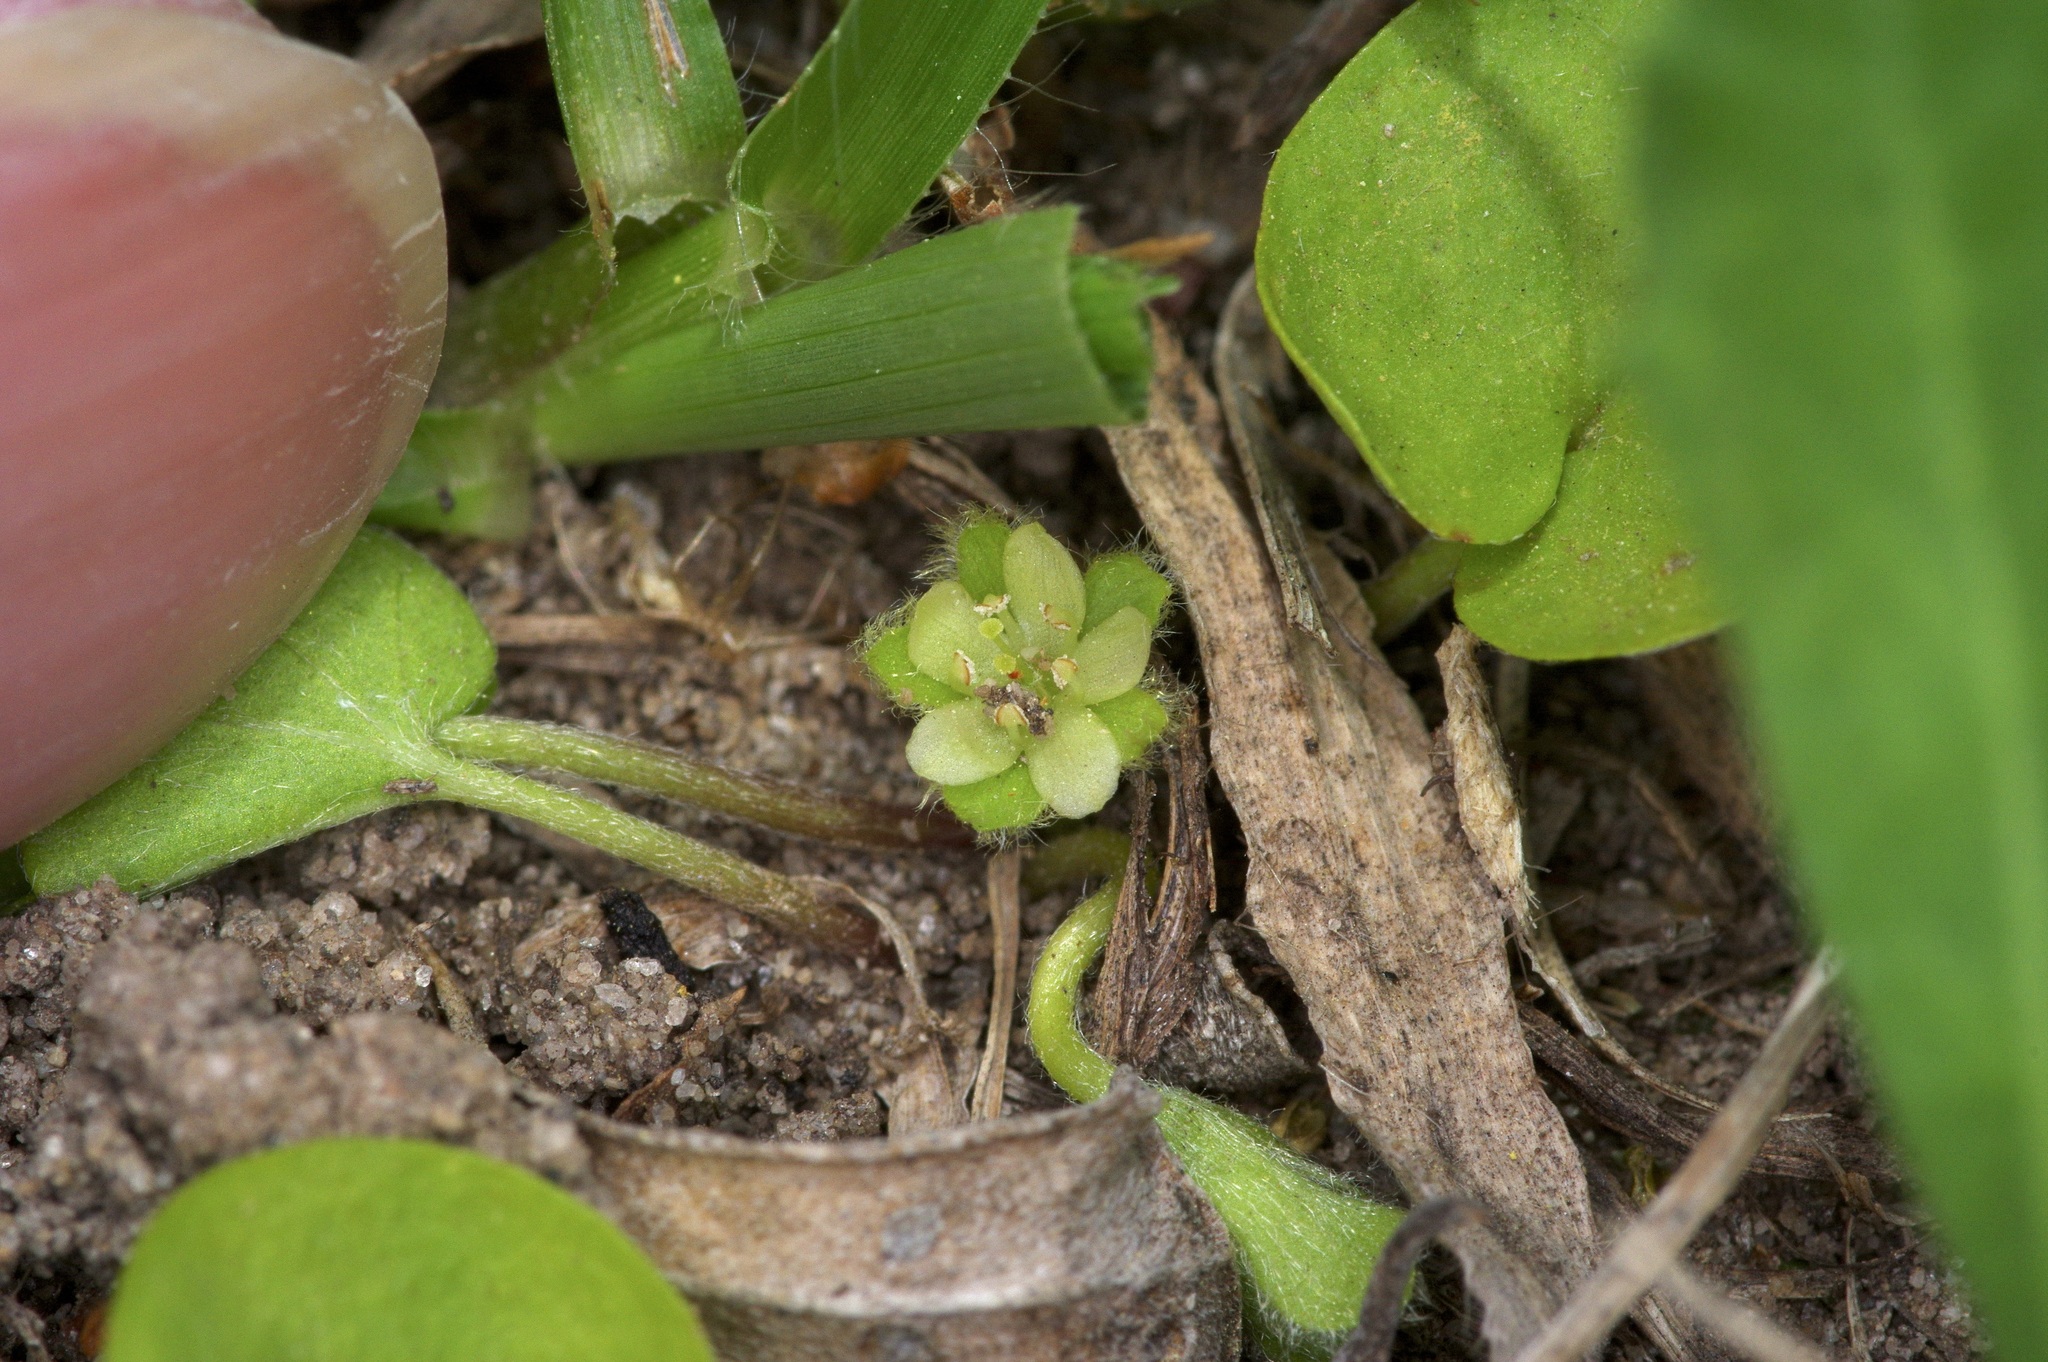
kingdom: Plantae
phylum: Tracheophyta
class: Magnoliopsida
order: Solanales
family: Convolvulaceae
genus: Dichondra
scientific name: Dichondra carolinensis
